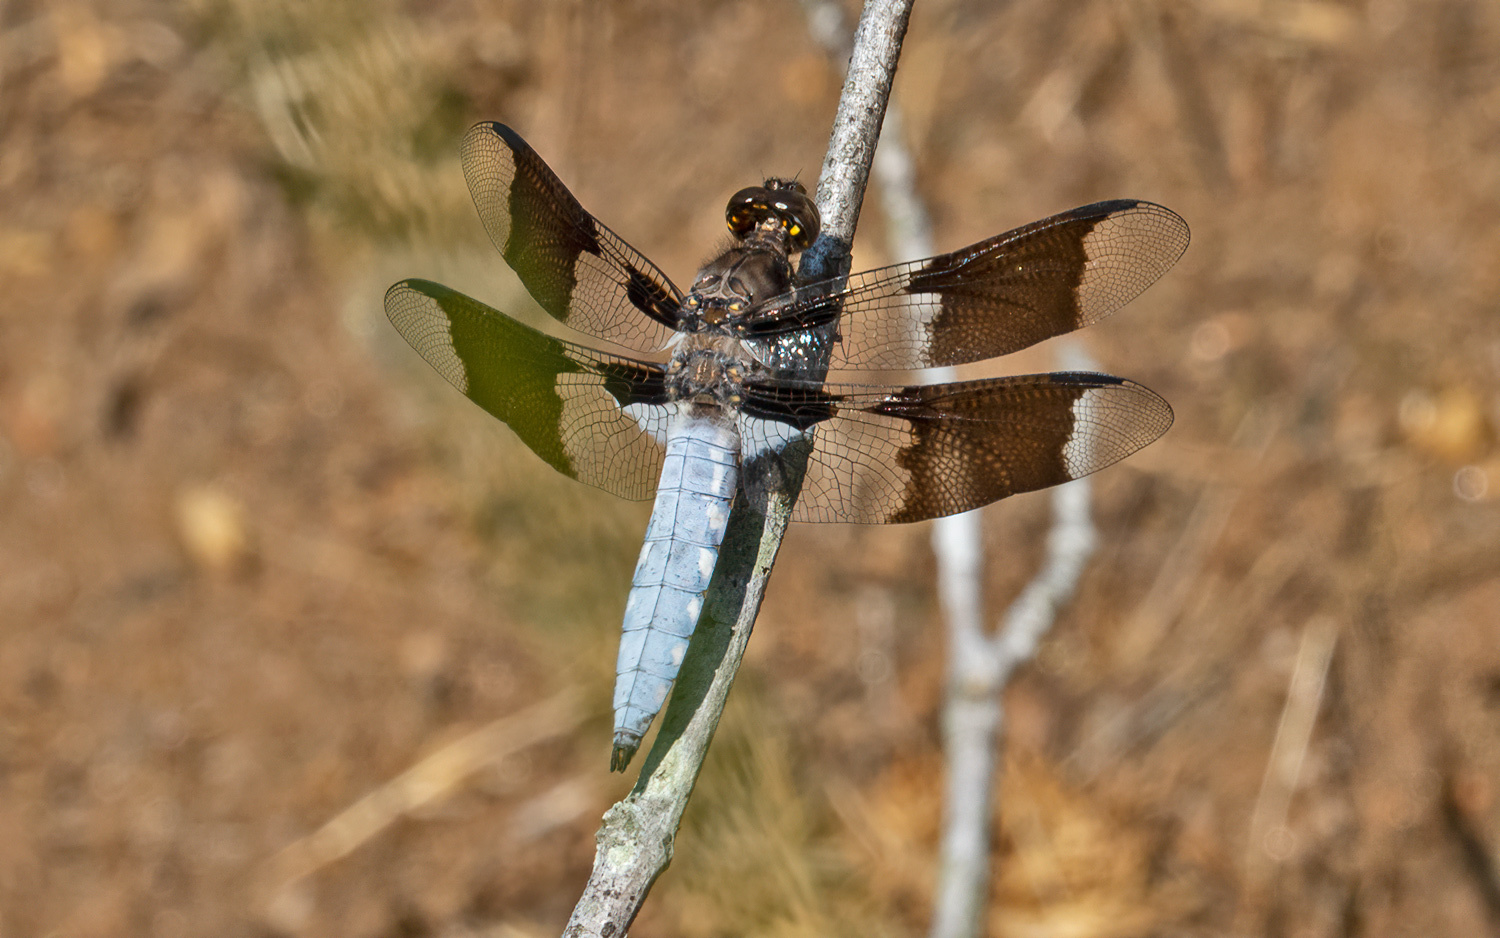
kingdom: Animalia
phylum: Arthropoda
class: Insecta
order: Odonata
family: Libellulidae
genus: Plathemis
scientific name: Plathemis lydia
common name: Common whitetail
